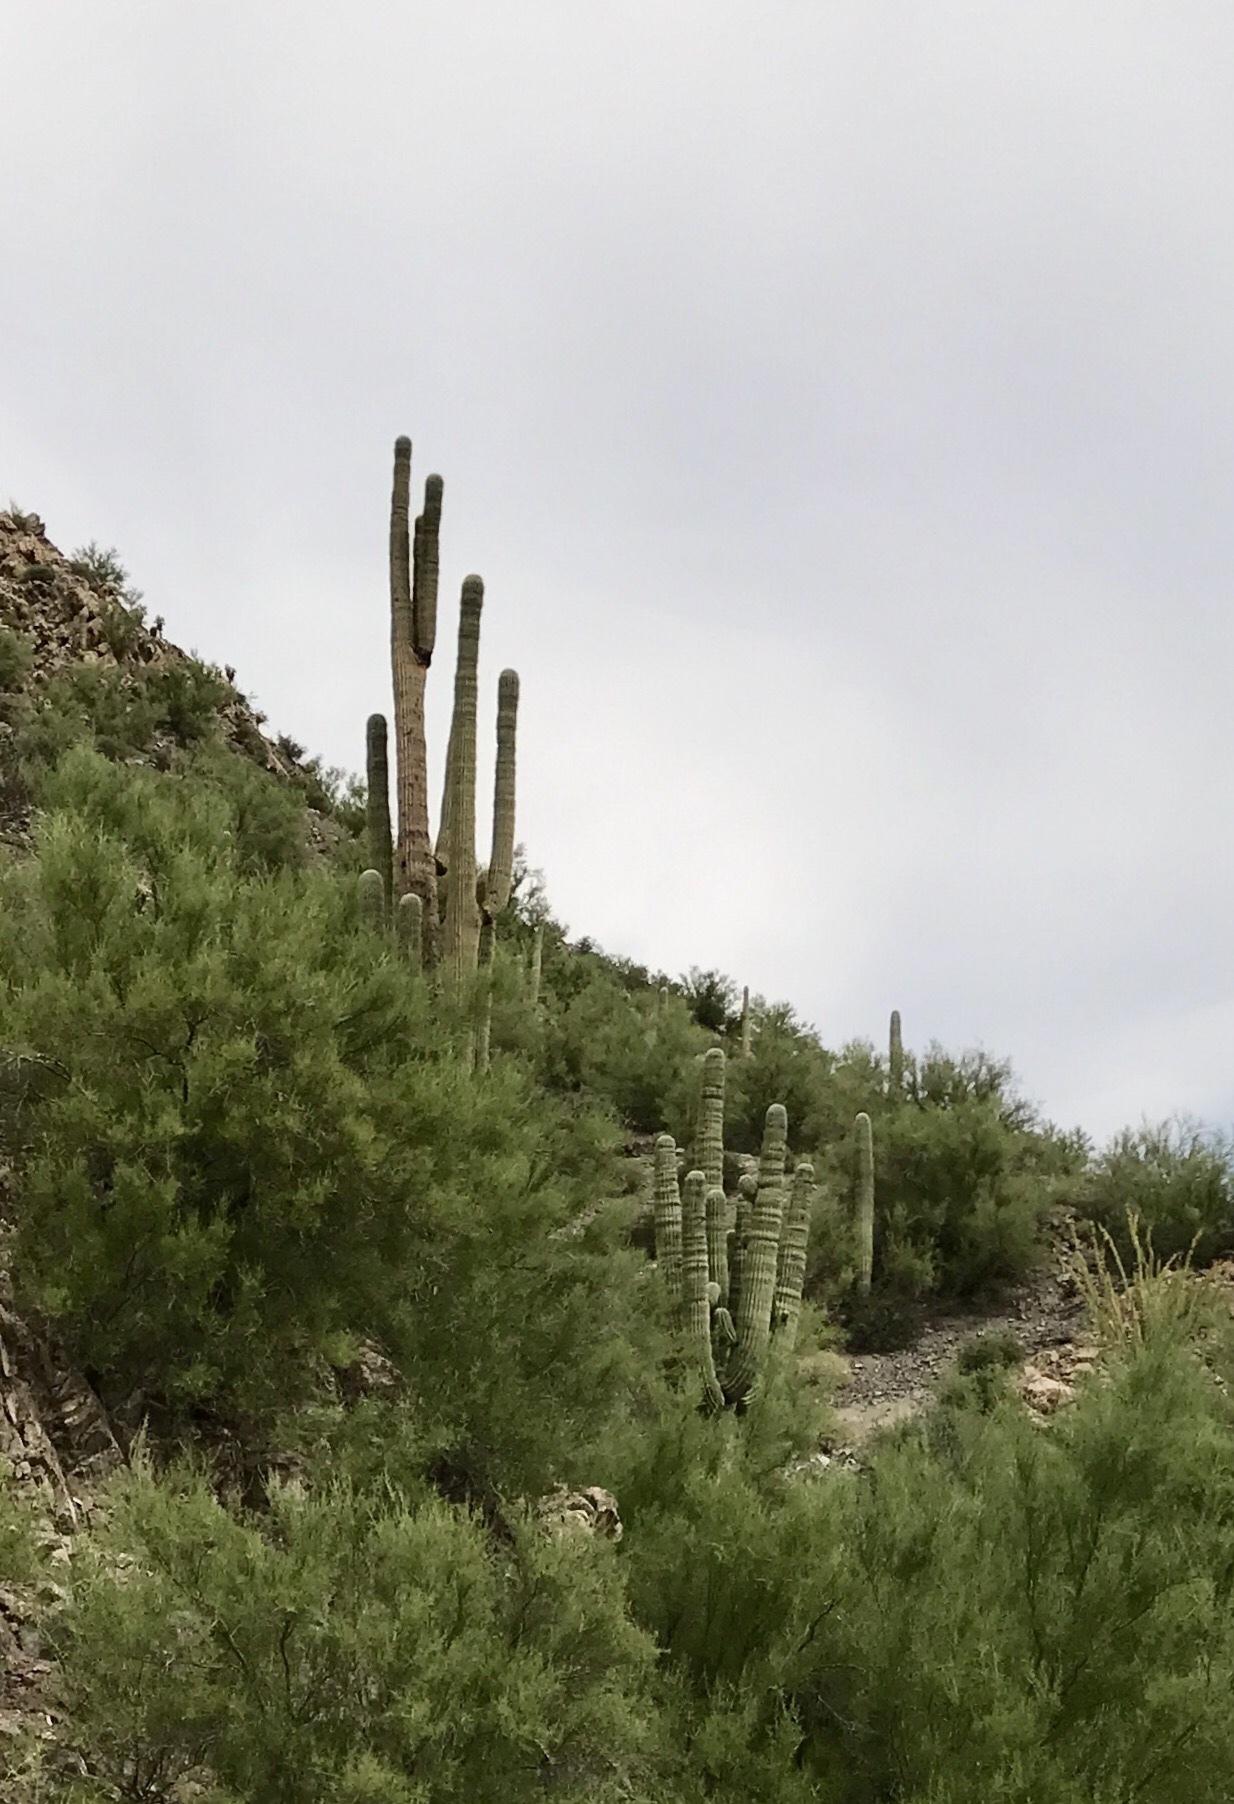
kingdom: Plantae
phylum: Tracheophyta
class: Magnoliopsida
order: Caryophyllales
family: Cactaceae
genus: Carnegiea
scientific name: Carnegiea gigantea
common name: Saguaro
